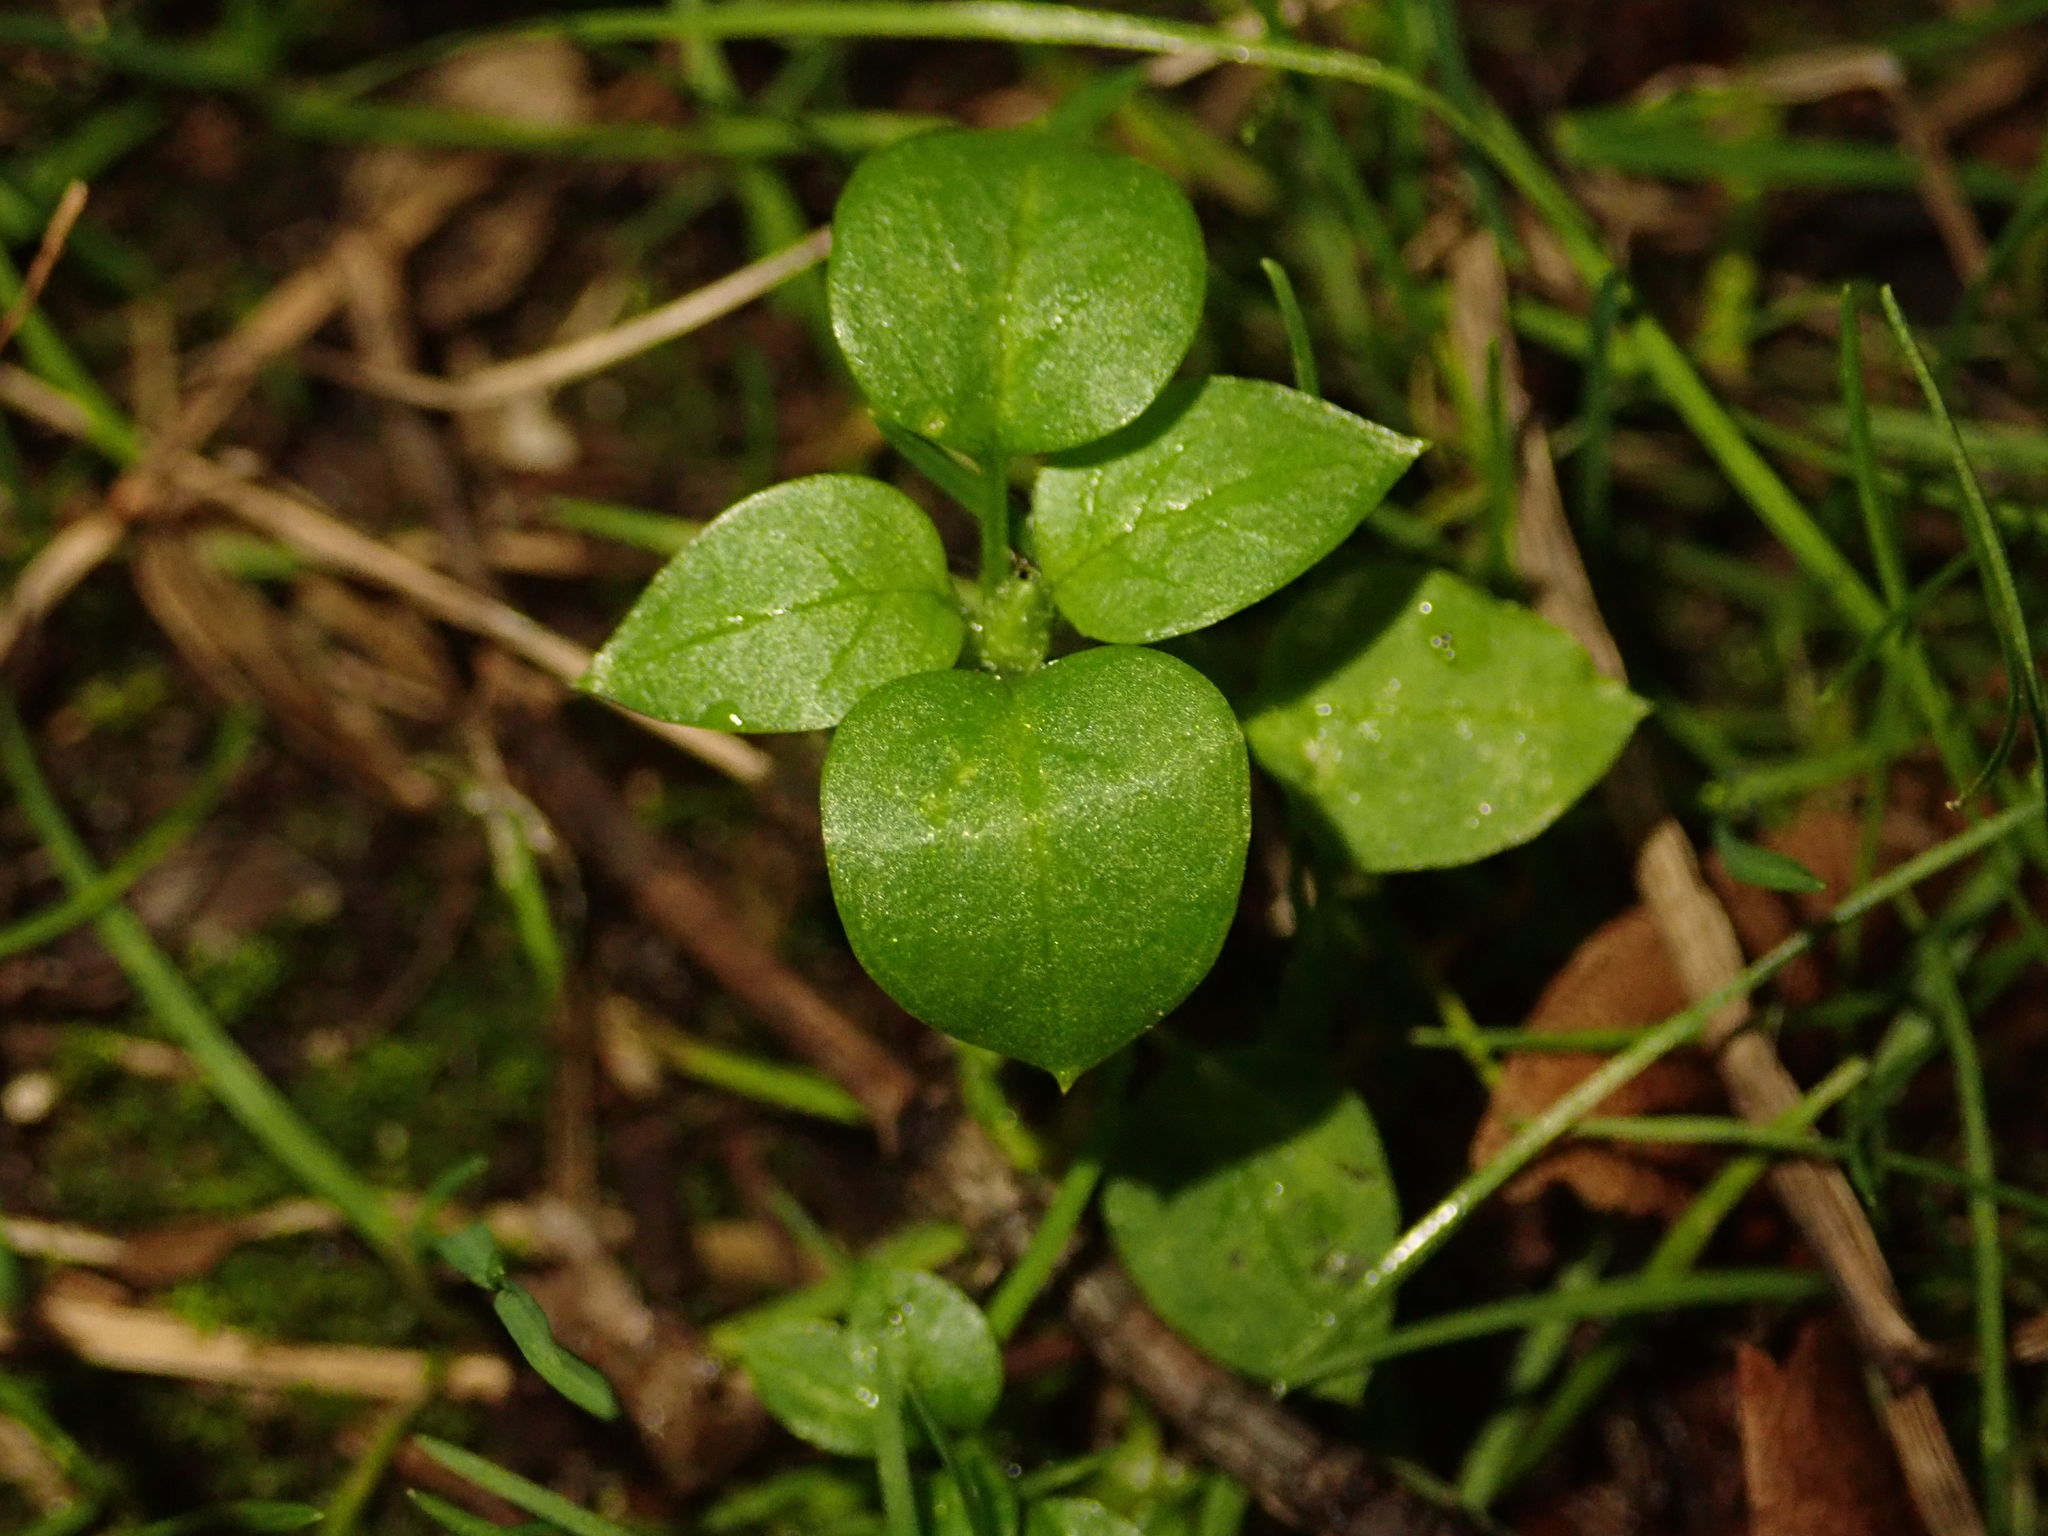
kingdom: Plantae
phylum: Tracheophyta
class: Magnoliopsida
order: Caryophyllales
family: Caryophyllaceae
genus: Stellaria
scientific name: Stellaria media
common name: Common chickweed
